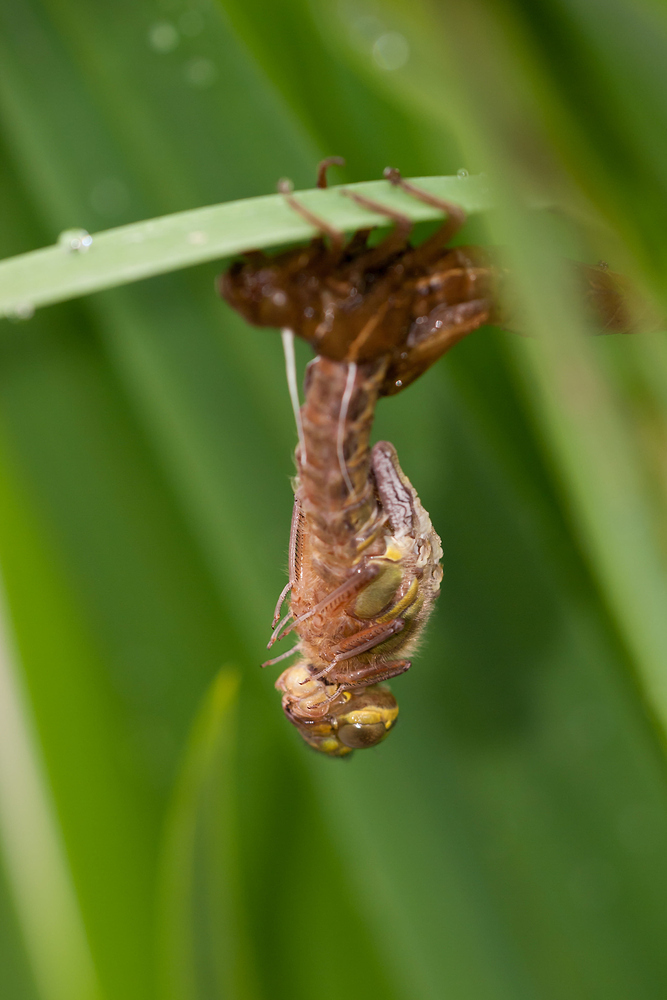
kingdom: Animalia
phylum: Arthropoda
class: Insecta
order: Odonata
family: Aeshnidae
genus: Brachytron
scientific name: Brachytron pratense
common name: Hairy hawker
